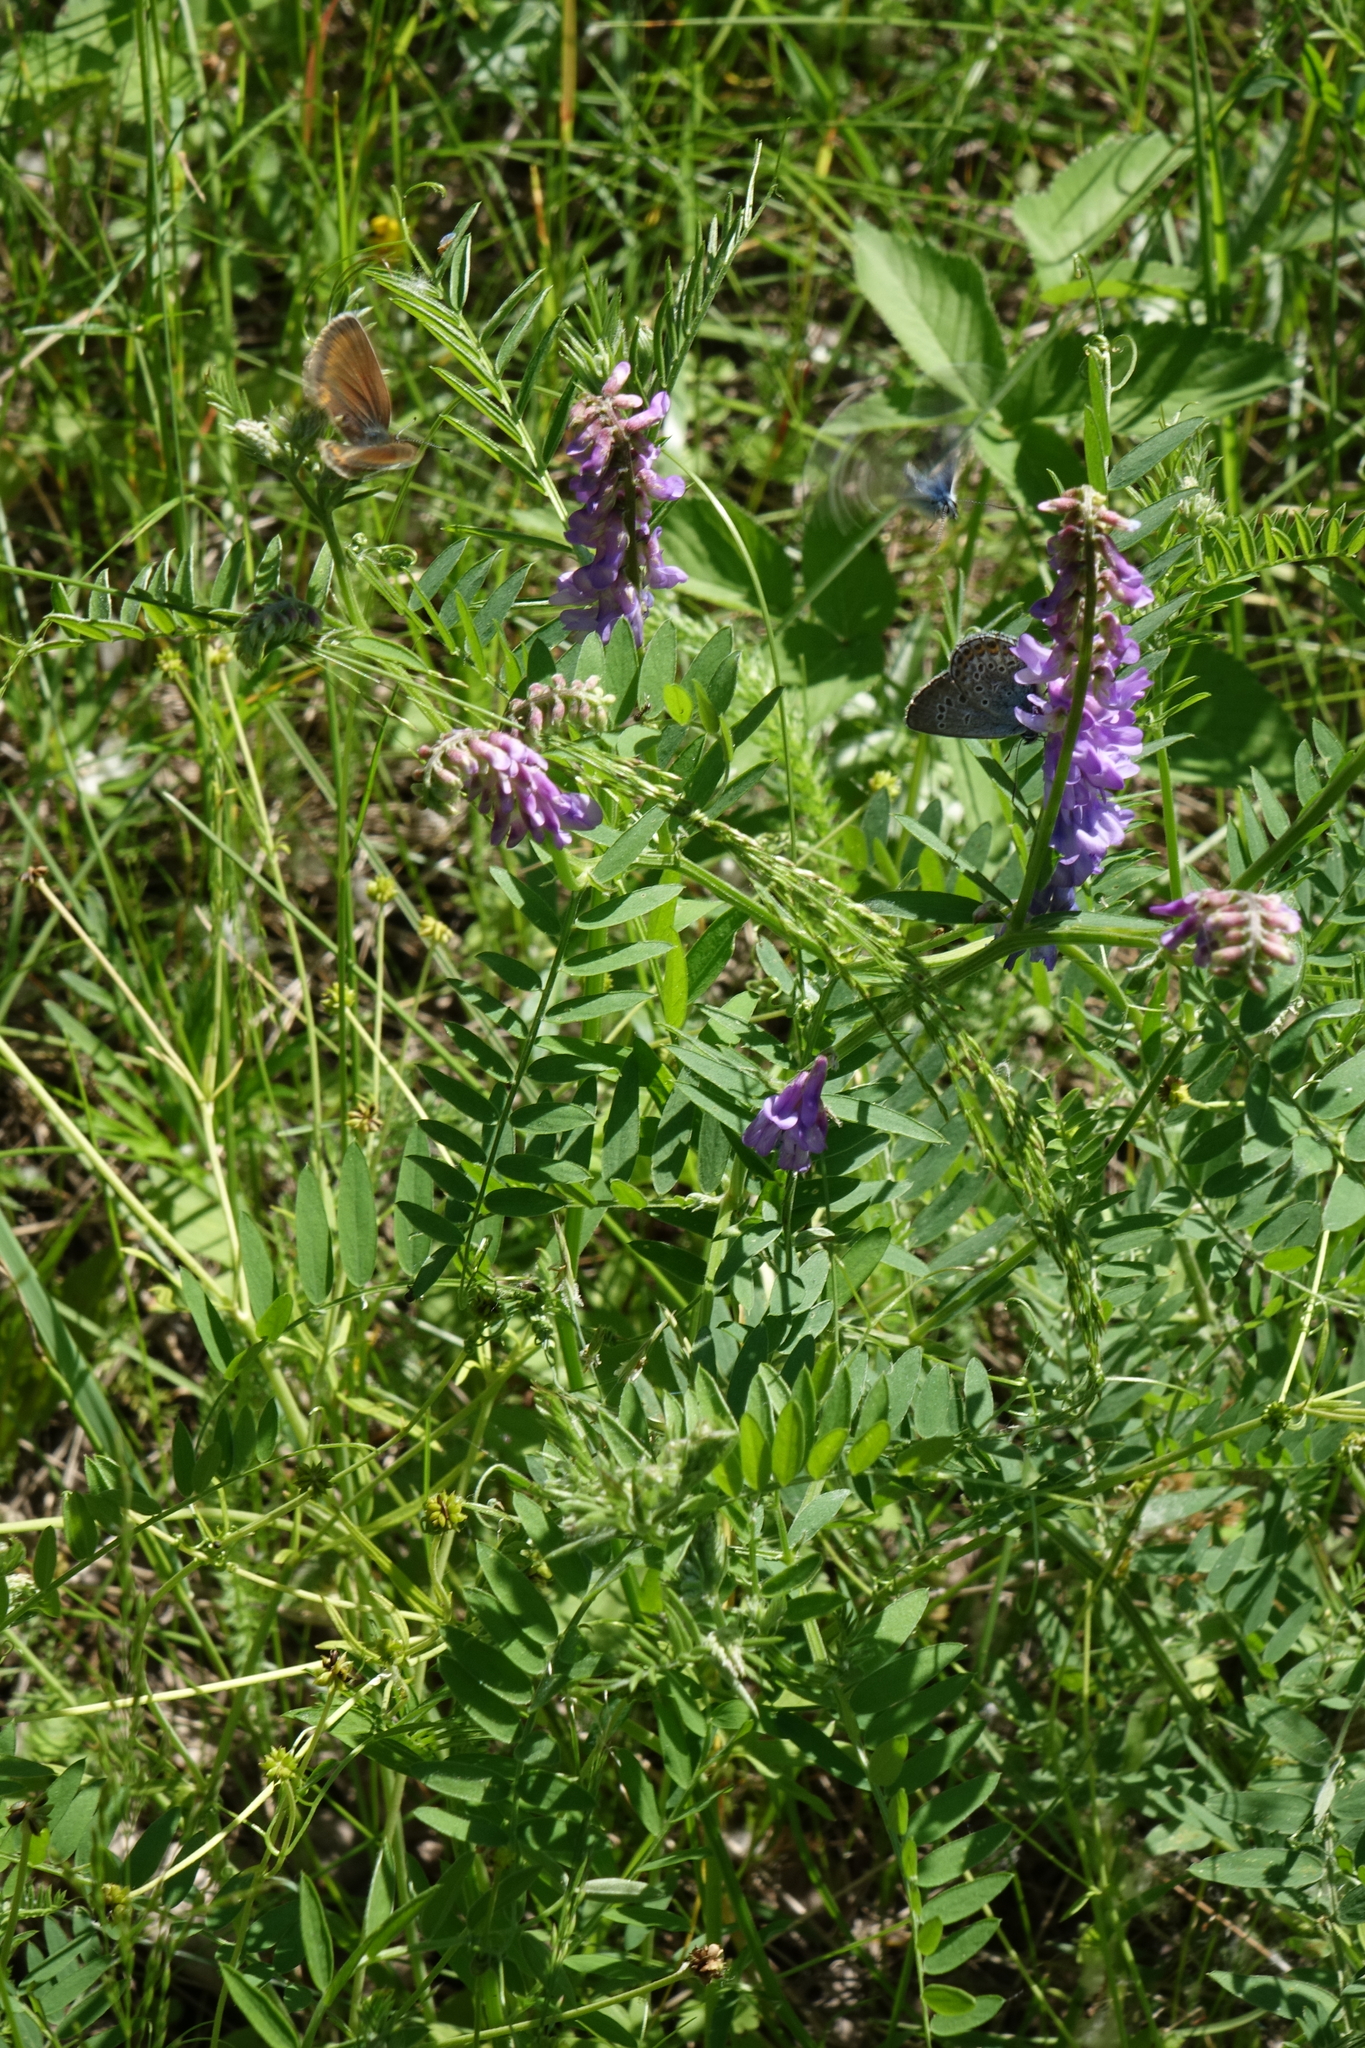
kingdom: Plantae
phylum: Tracheophyta
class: Magnoliopsida
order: Fabales
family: Fabaceae
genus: Vicia
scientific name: Vicia cracca
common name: Bird vetch
